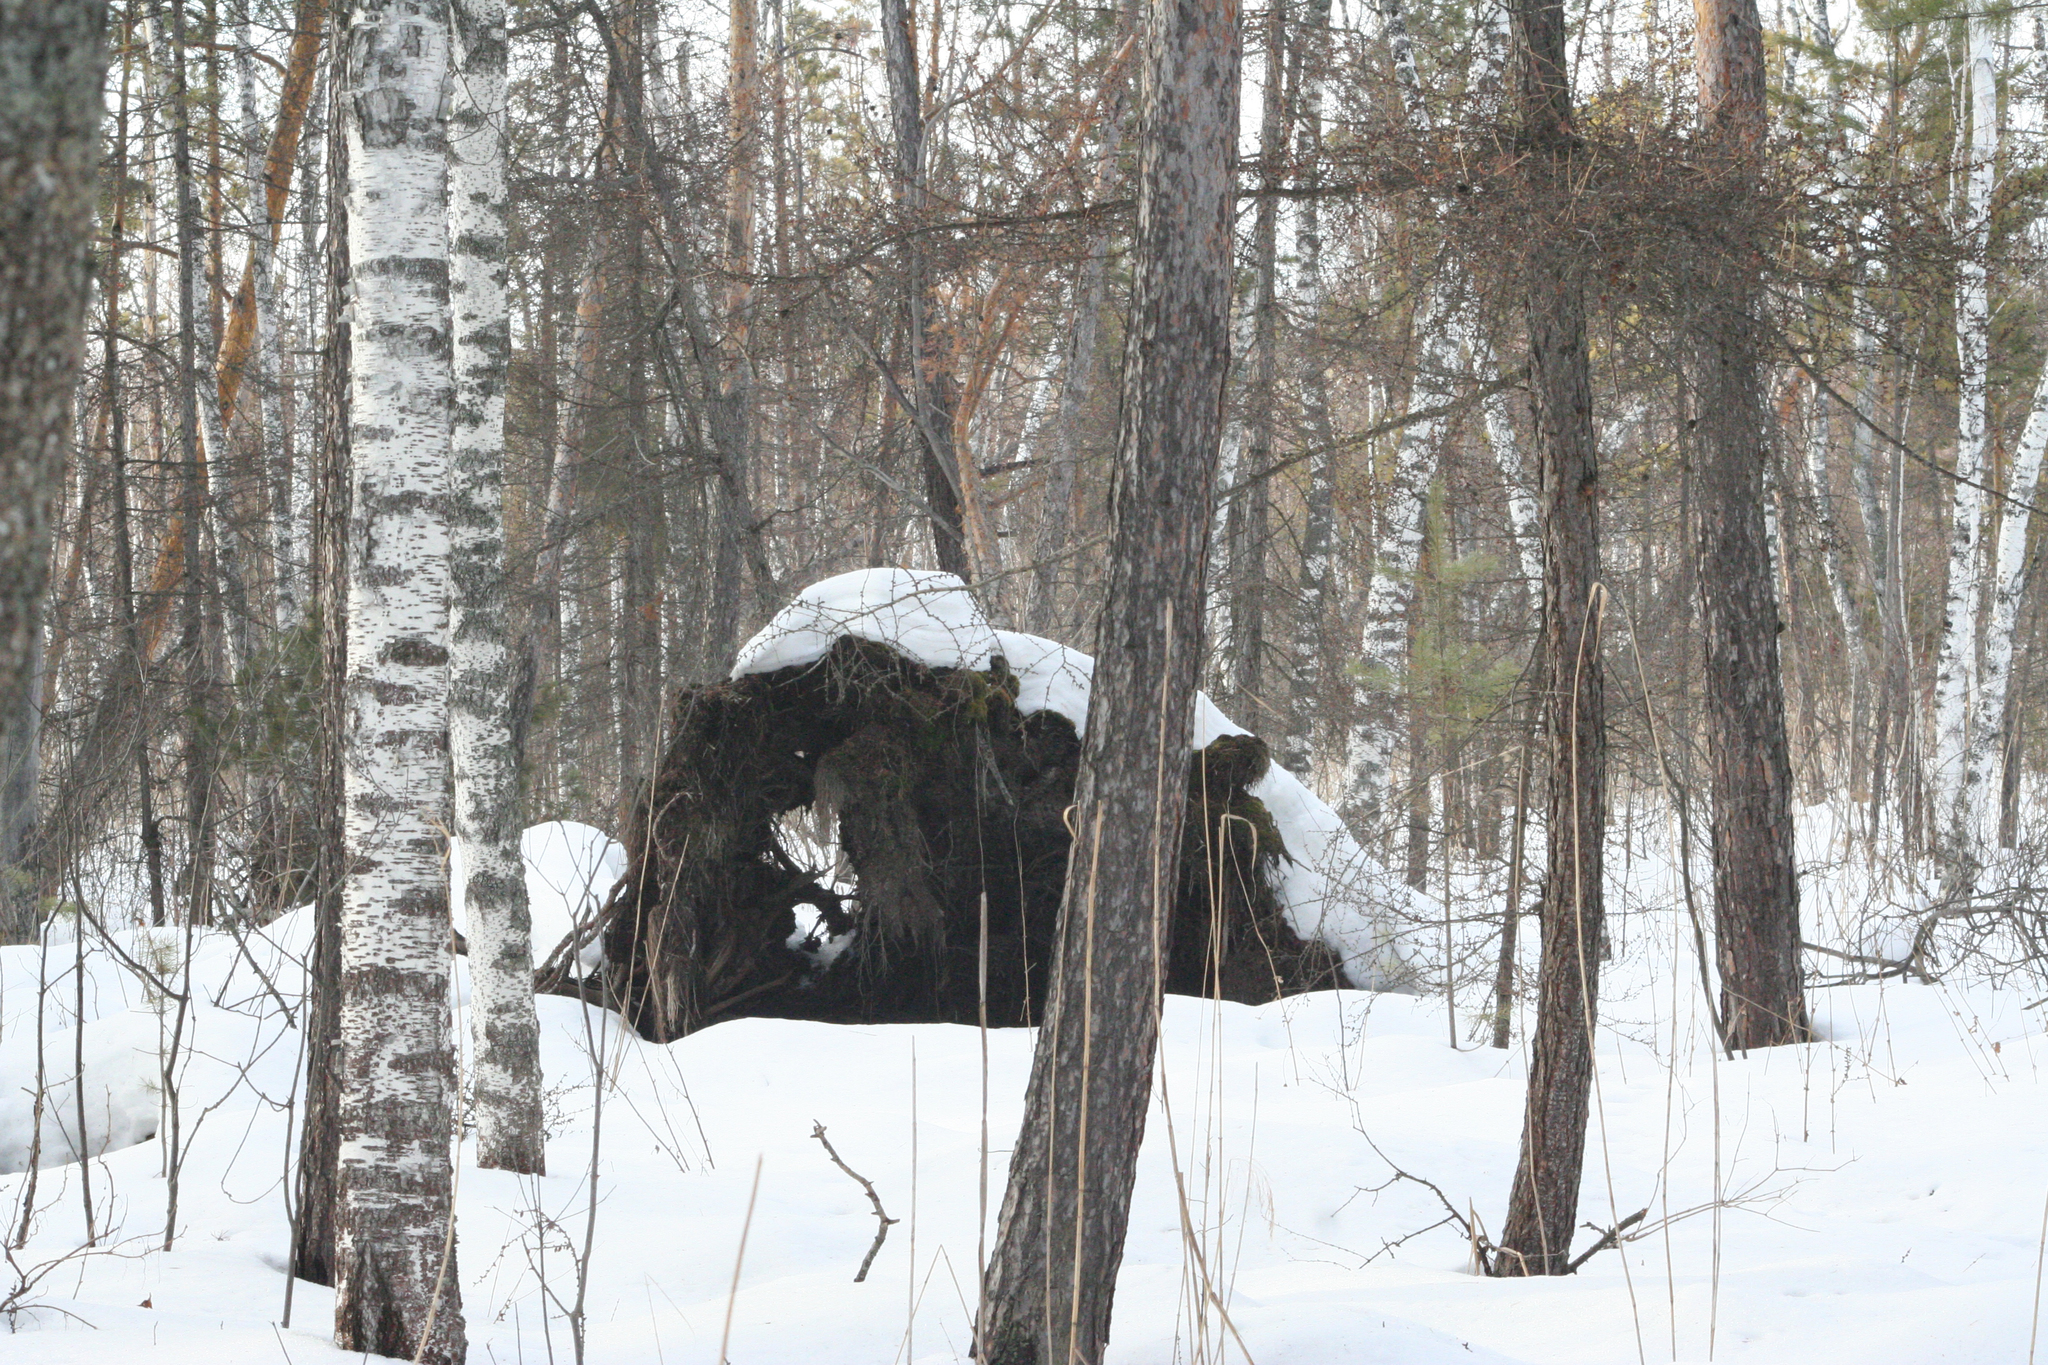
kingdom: Plantae
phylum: Tracheophyta
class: Pinopsida
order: Pinales
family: Pinaceae
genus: Pinus
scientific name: Pinus sylvestris
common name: Scots pine
